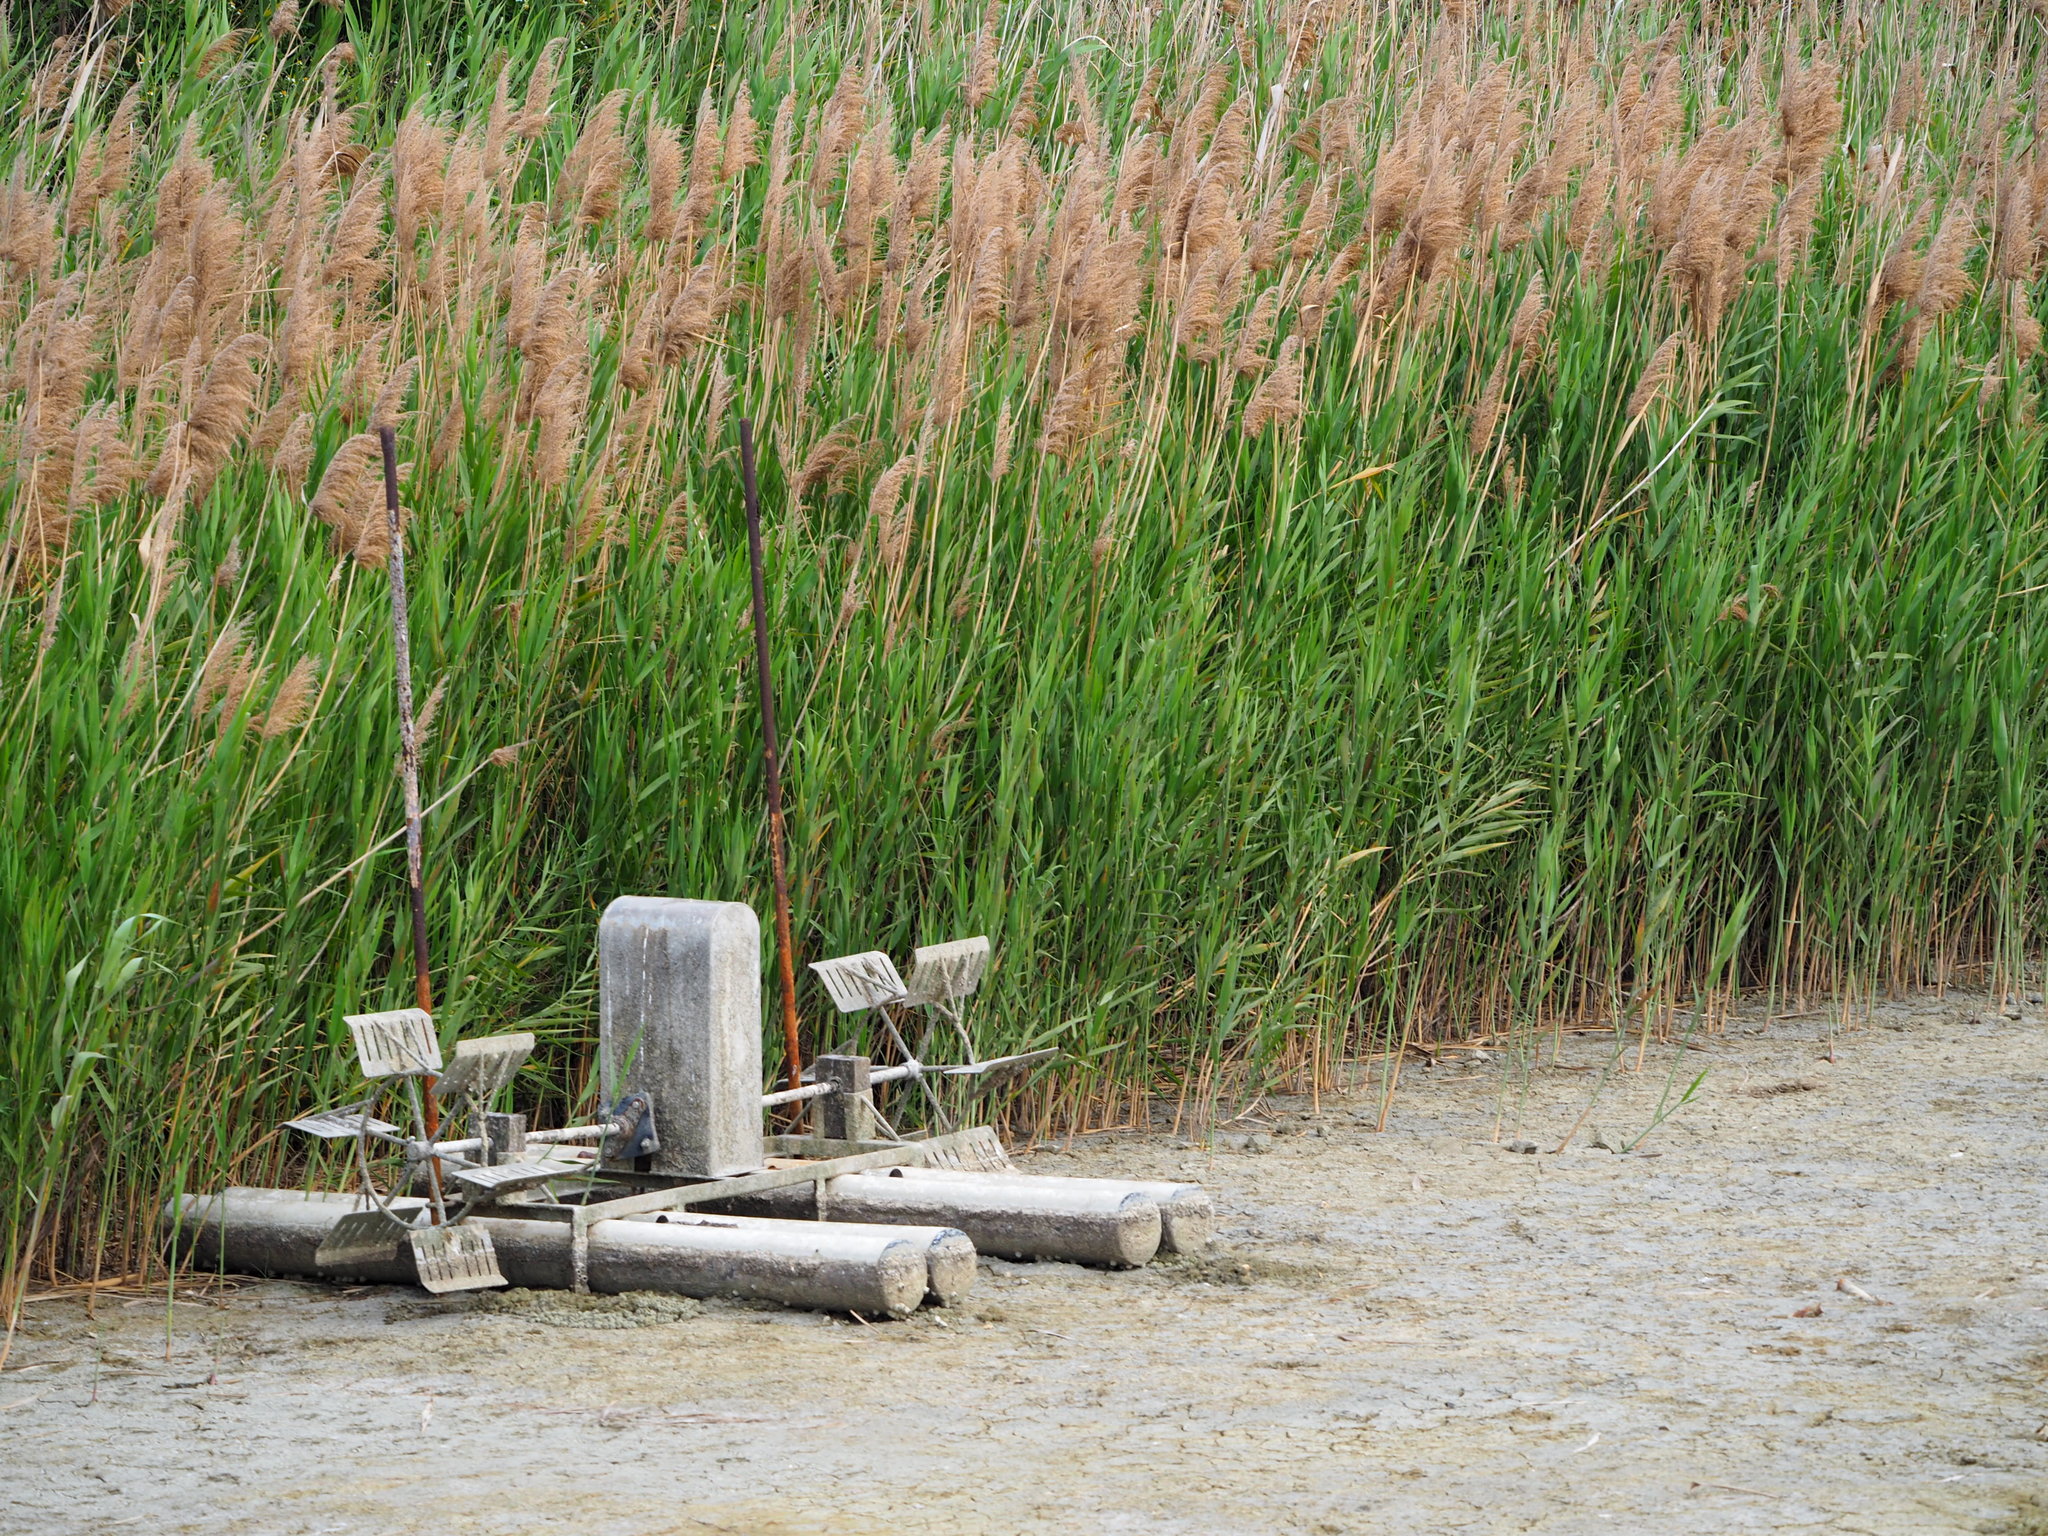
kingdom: Plantae
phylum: Tracheophyta
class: Liliopsida
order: Poales
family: Poaceae
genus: Phragmites
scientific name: Phragmites australis
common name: Common reed
